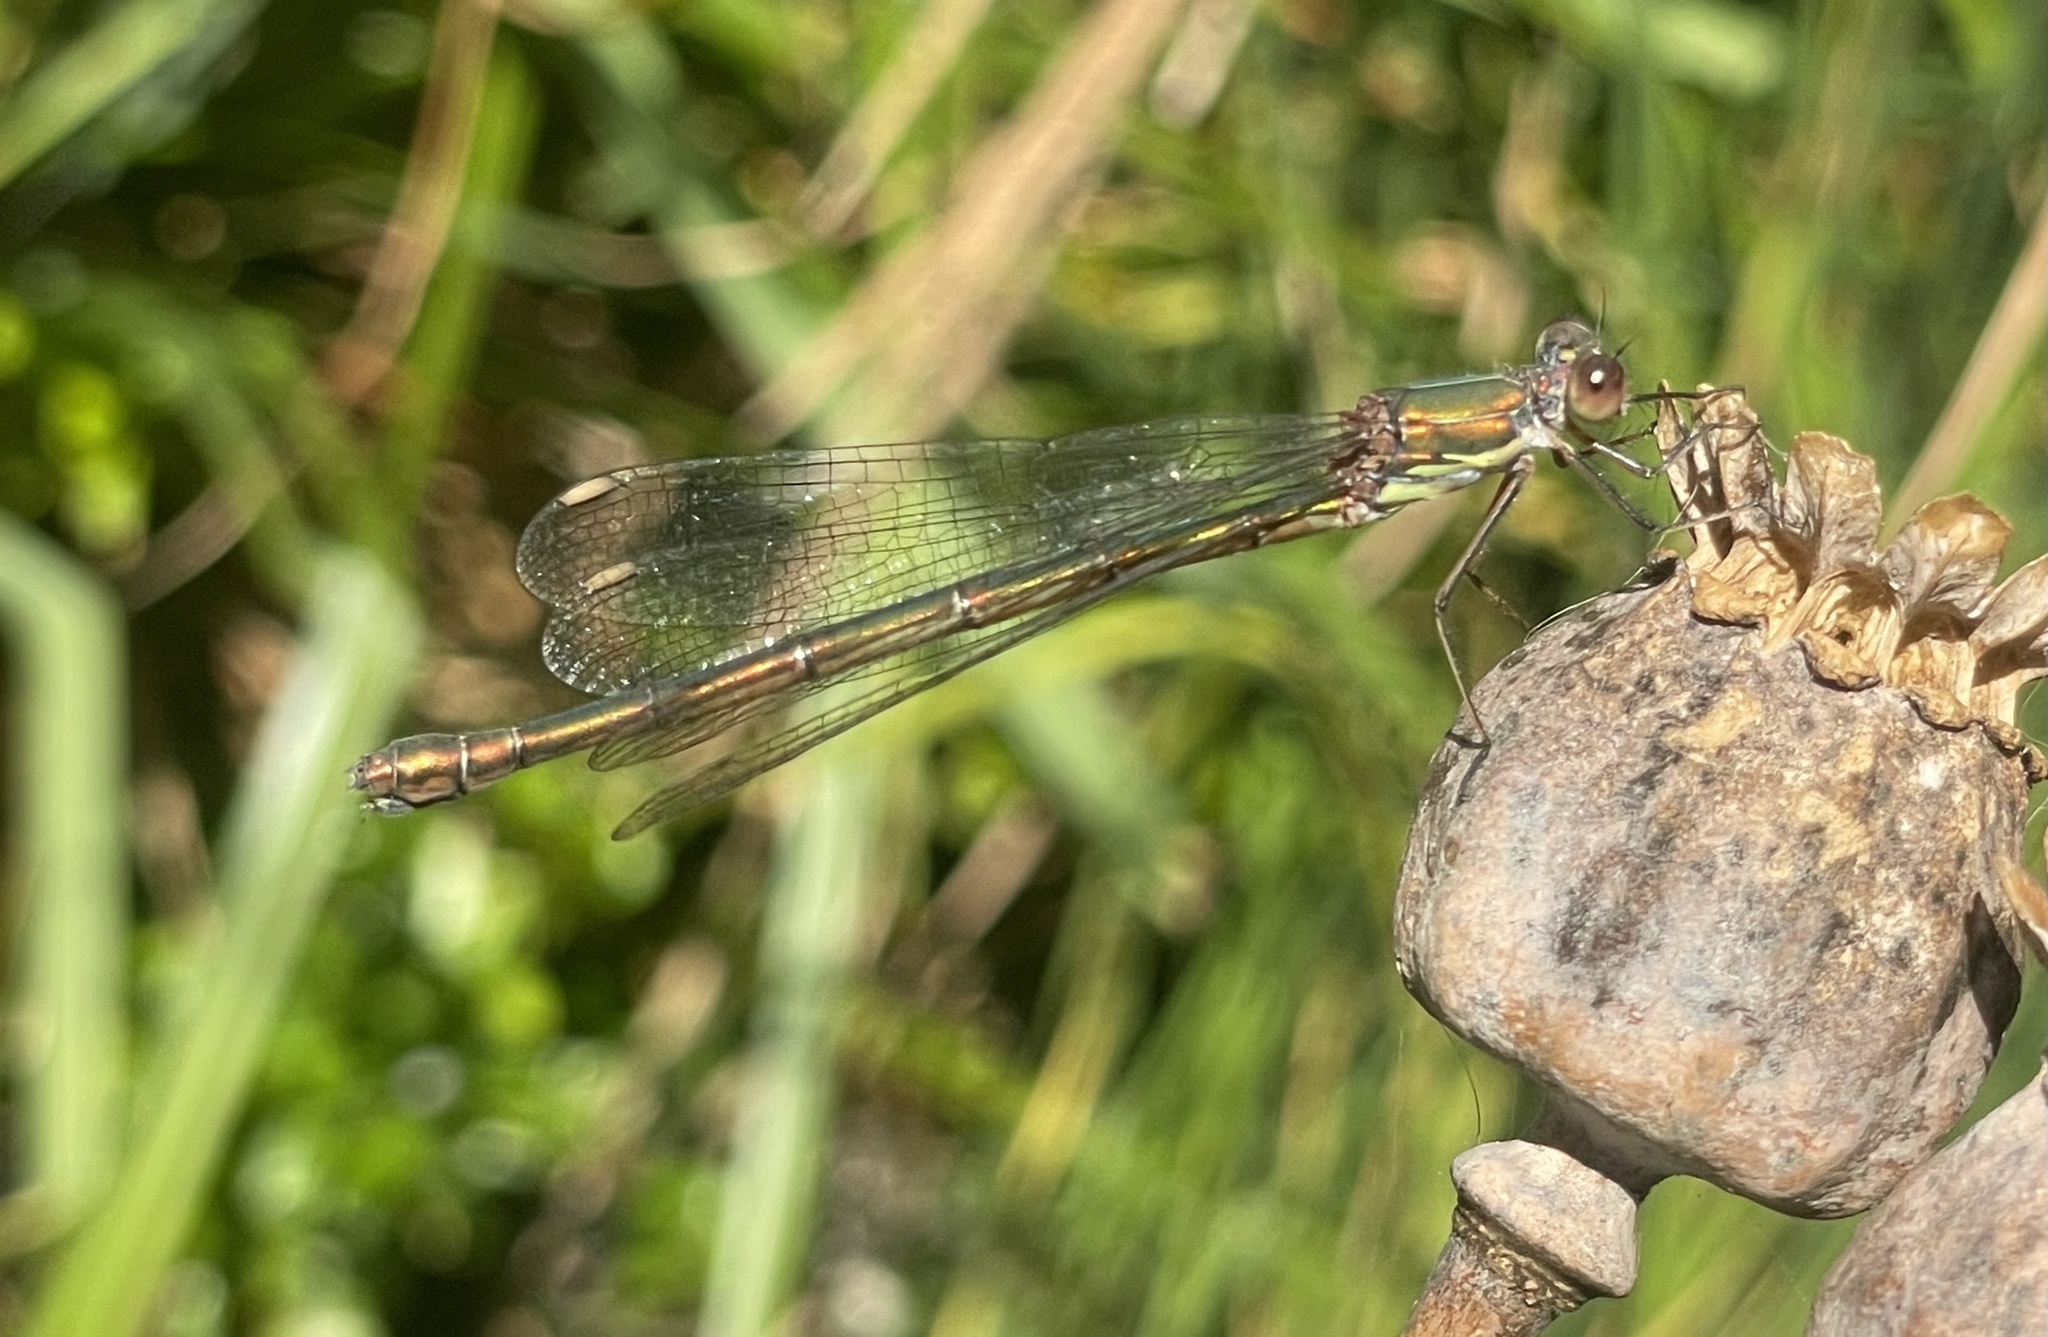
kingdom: Animalia
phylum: Arthropoda
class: Insecta
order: Odonata
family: Lestidae
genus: Chalcolestes
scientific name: Chalcolestes viridis
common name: Green emerald damselfly
